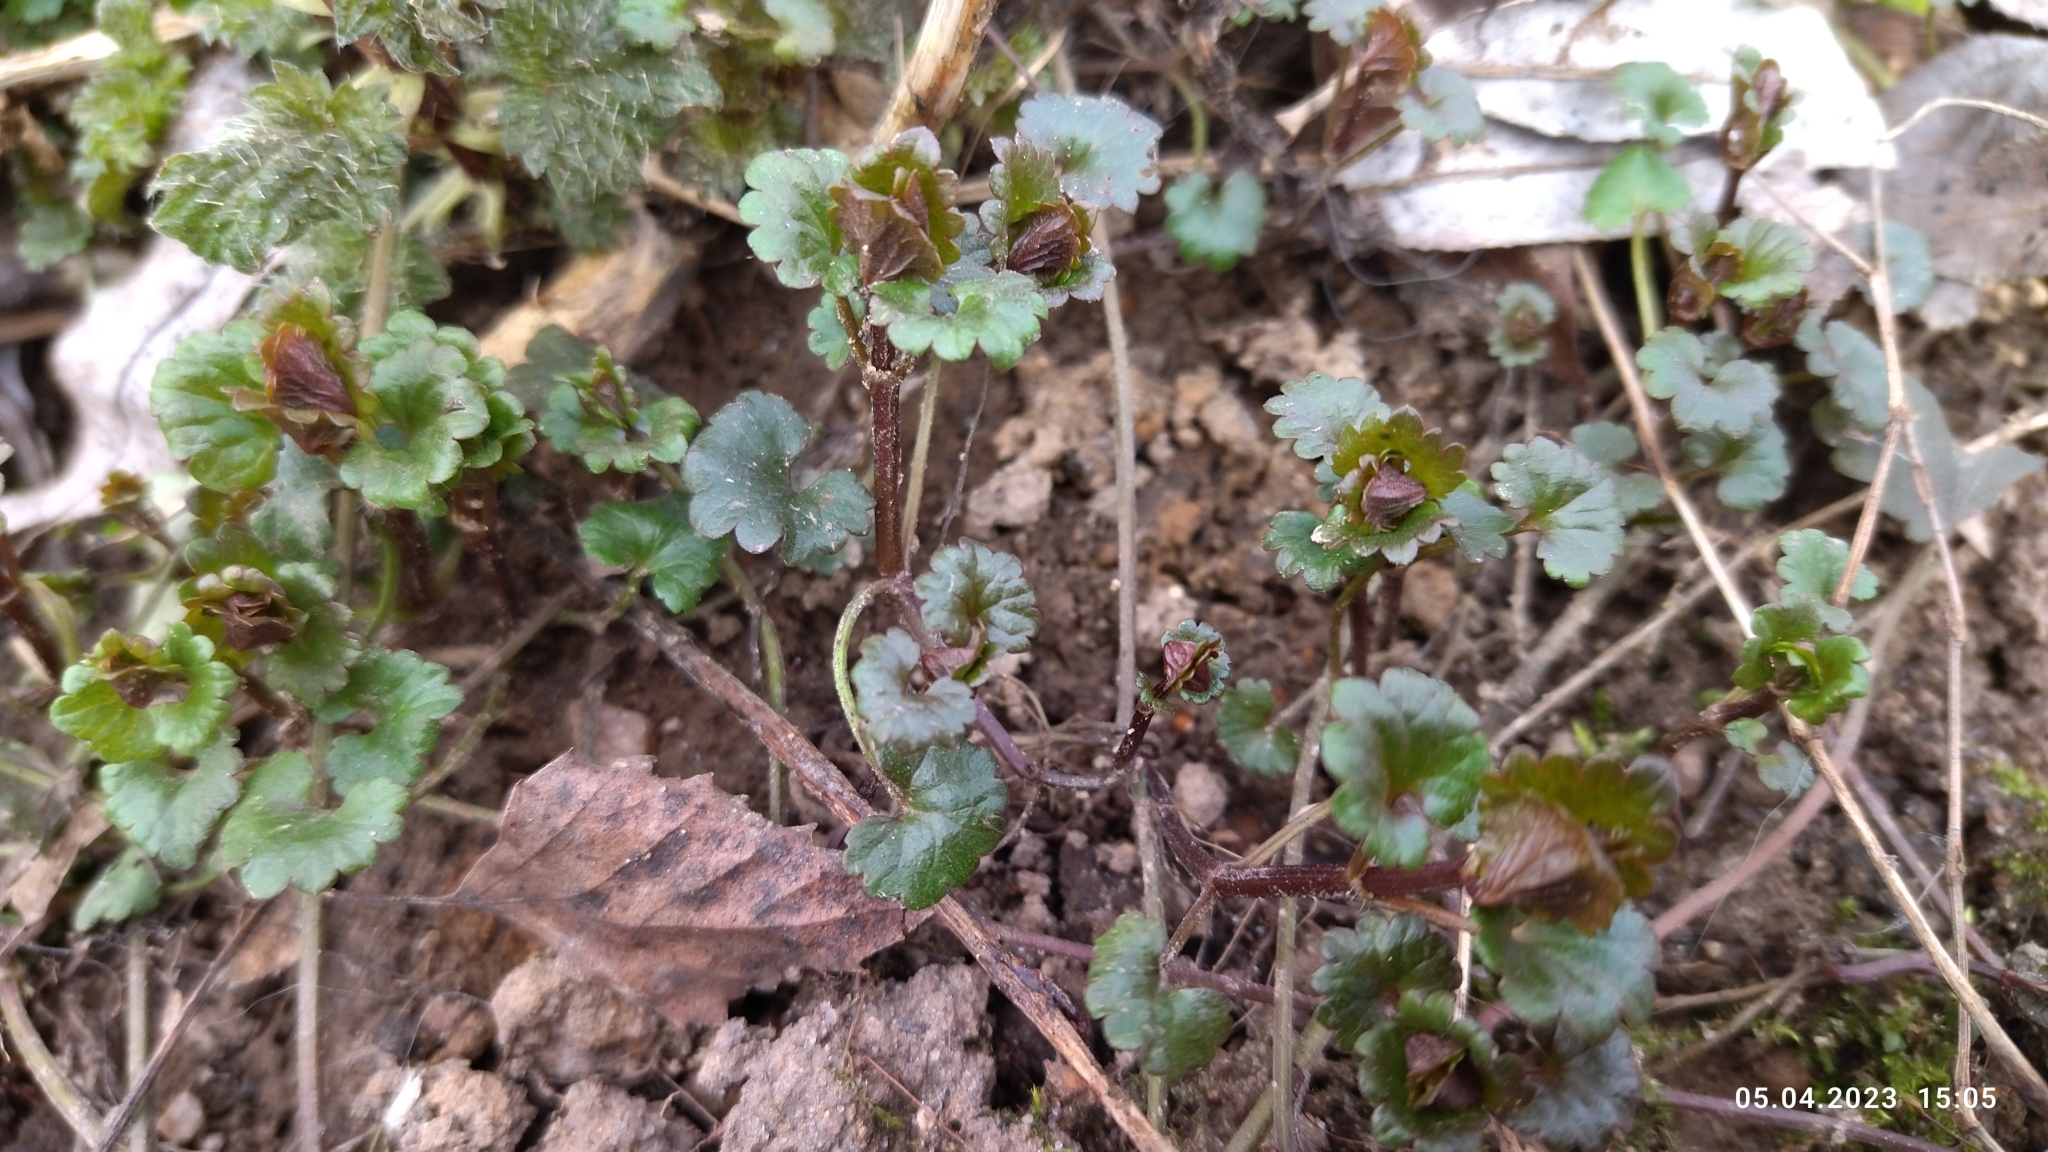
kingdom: Plantae
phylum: Tracheophyta
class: Magnoliopsida
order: Lamiales
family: Lamiaceae
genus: Glechoma
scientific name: Glechoma hederacea
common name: Ground ivy
